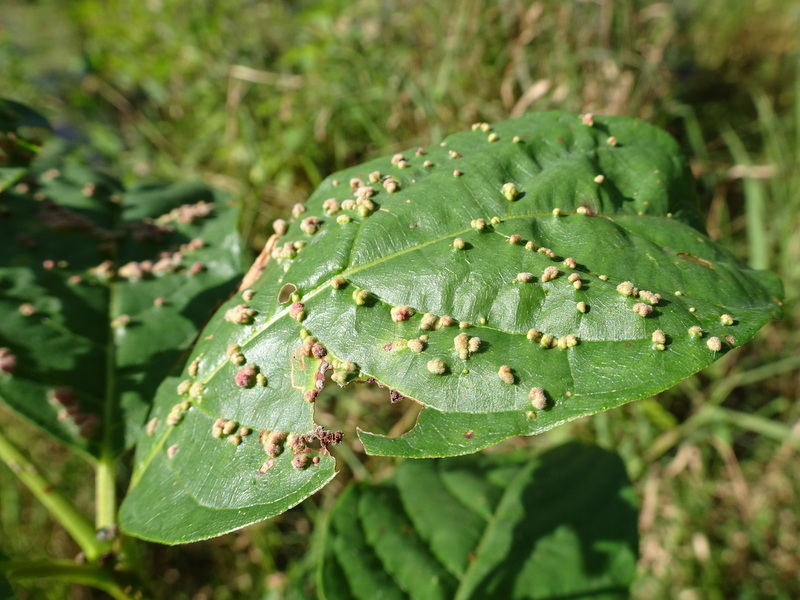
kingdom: Animalia
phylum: Arthropoda
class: Arachnida
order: Trombidiformes
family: Eriophyidae
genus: Aceria
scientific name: Aceria
